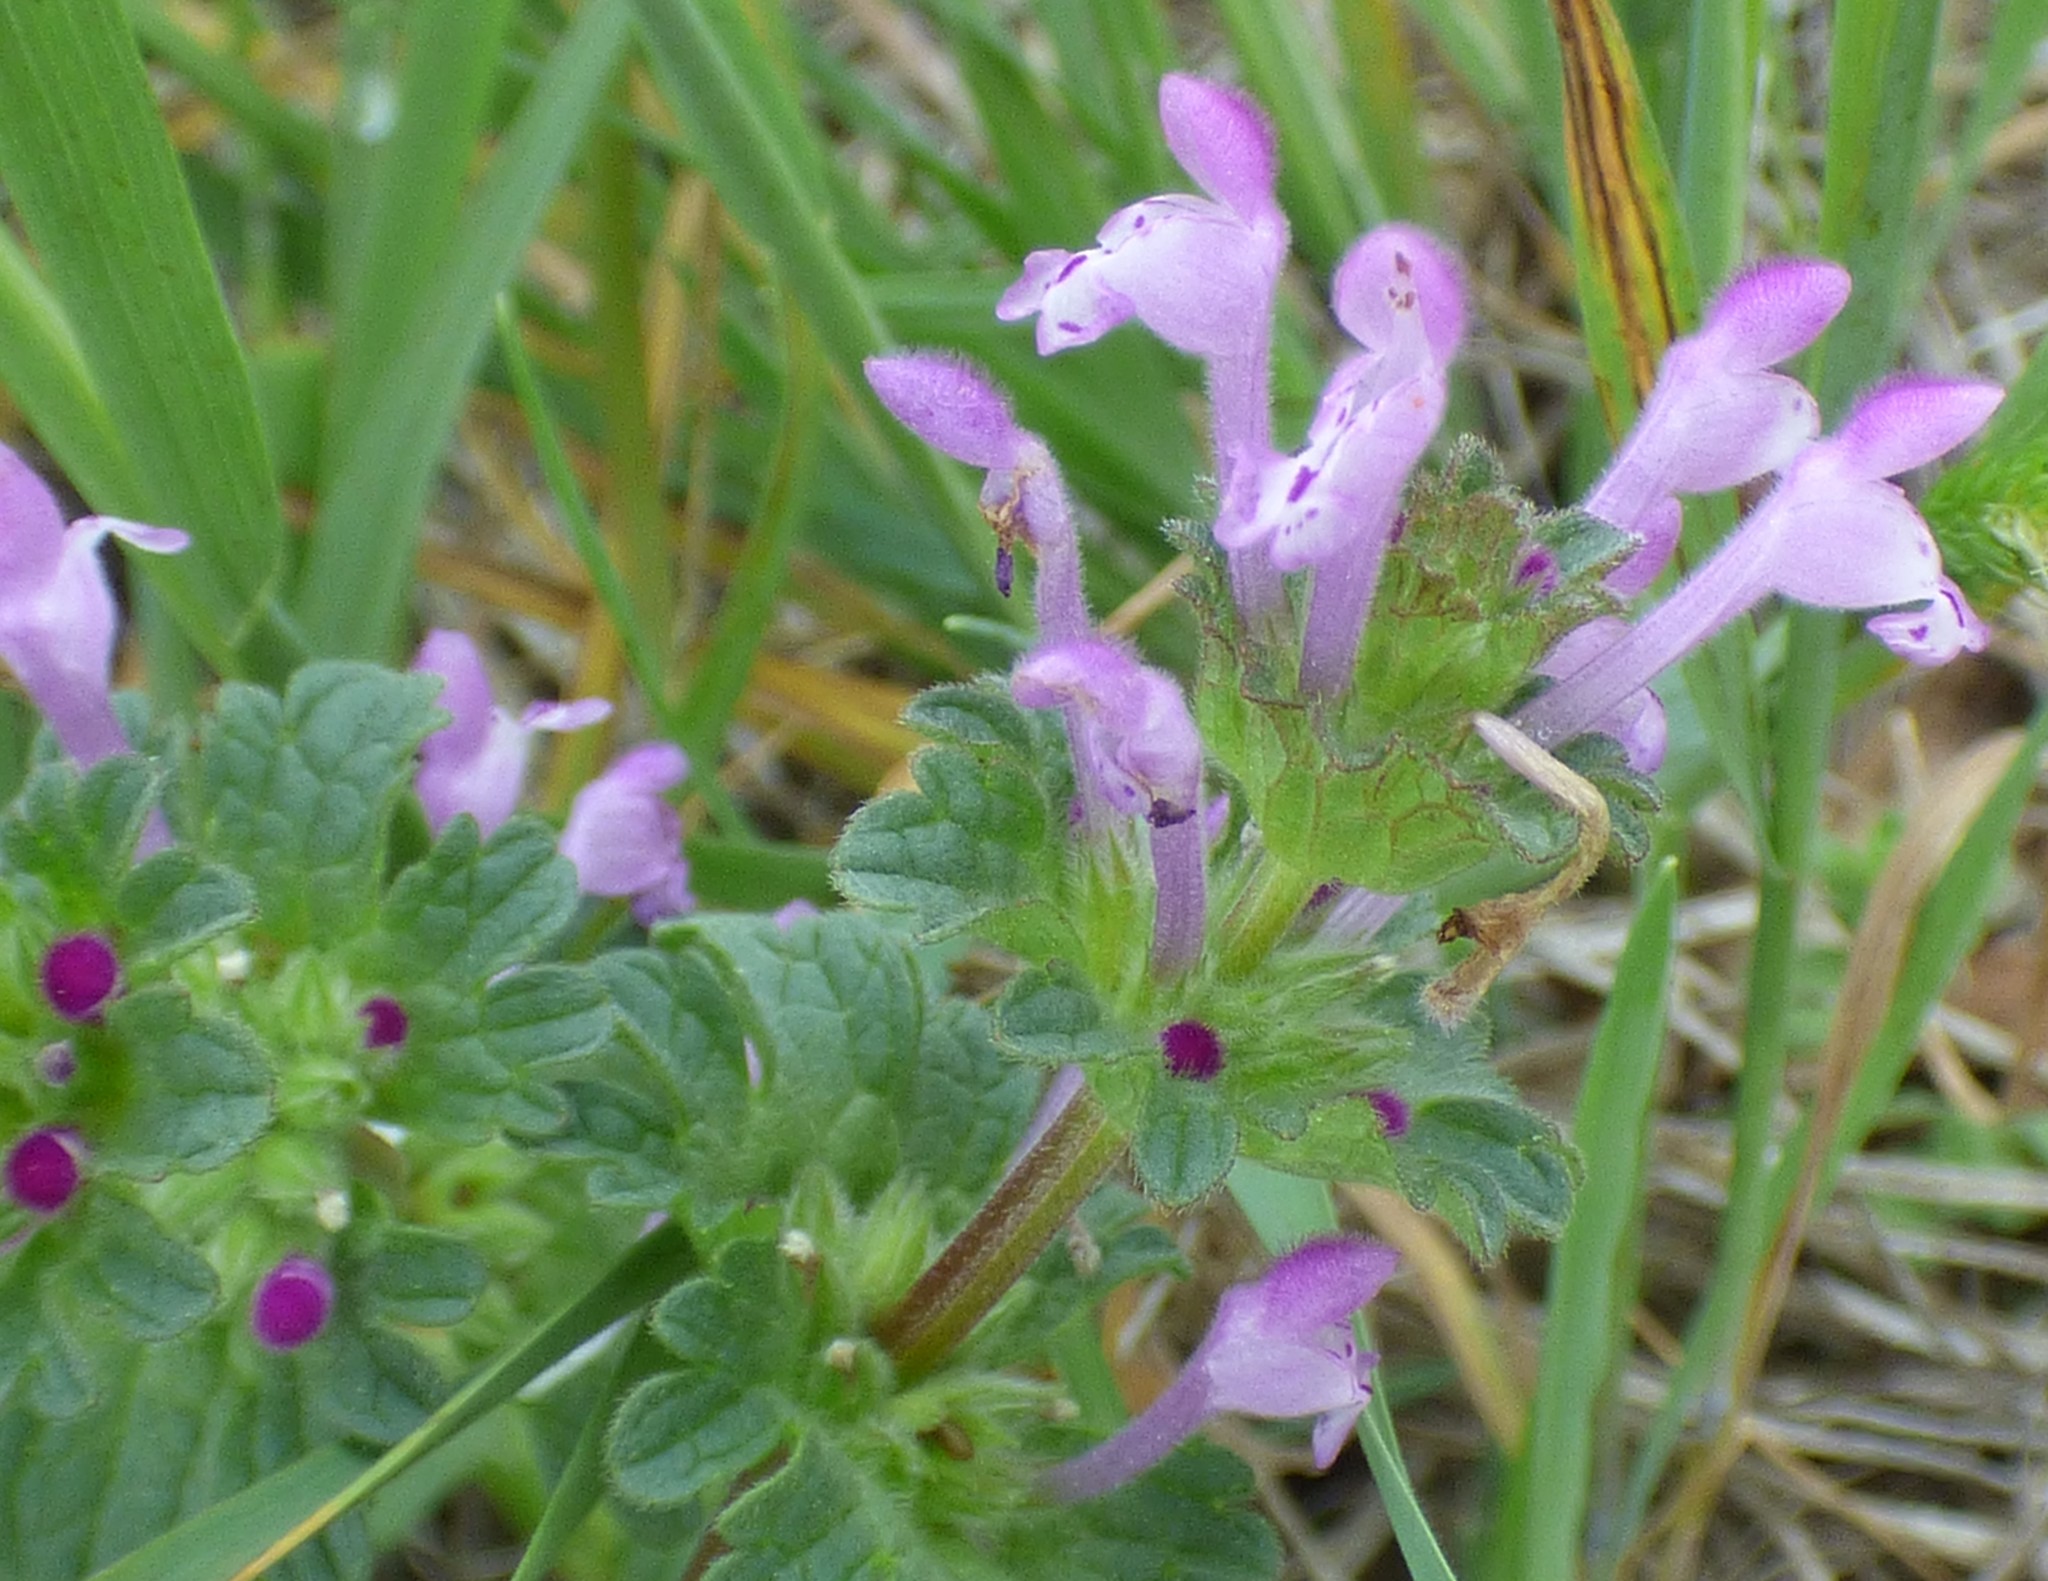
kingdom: Plantae
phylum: Tracheophyta
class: Magnoliopsida
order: Lamiales
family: Lamiaceae
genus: Lamium
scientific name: Lamium amplexicaule
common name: Henbit dead-nettle
